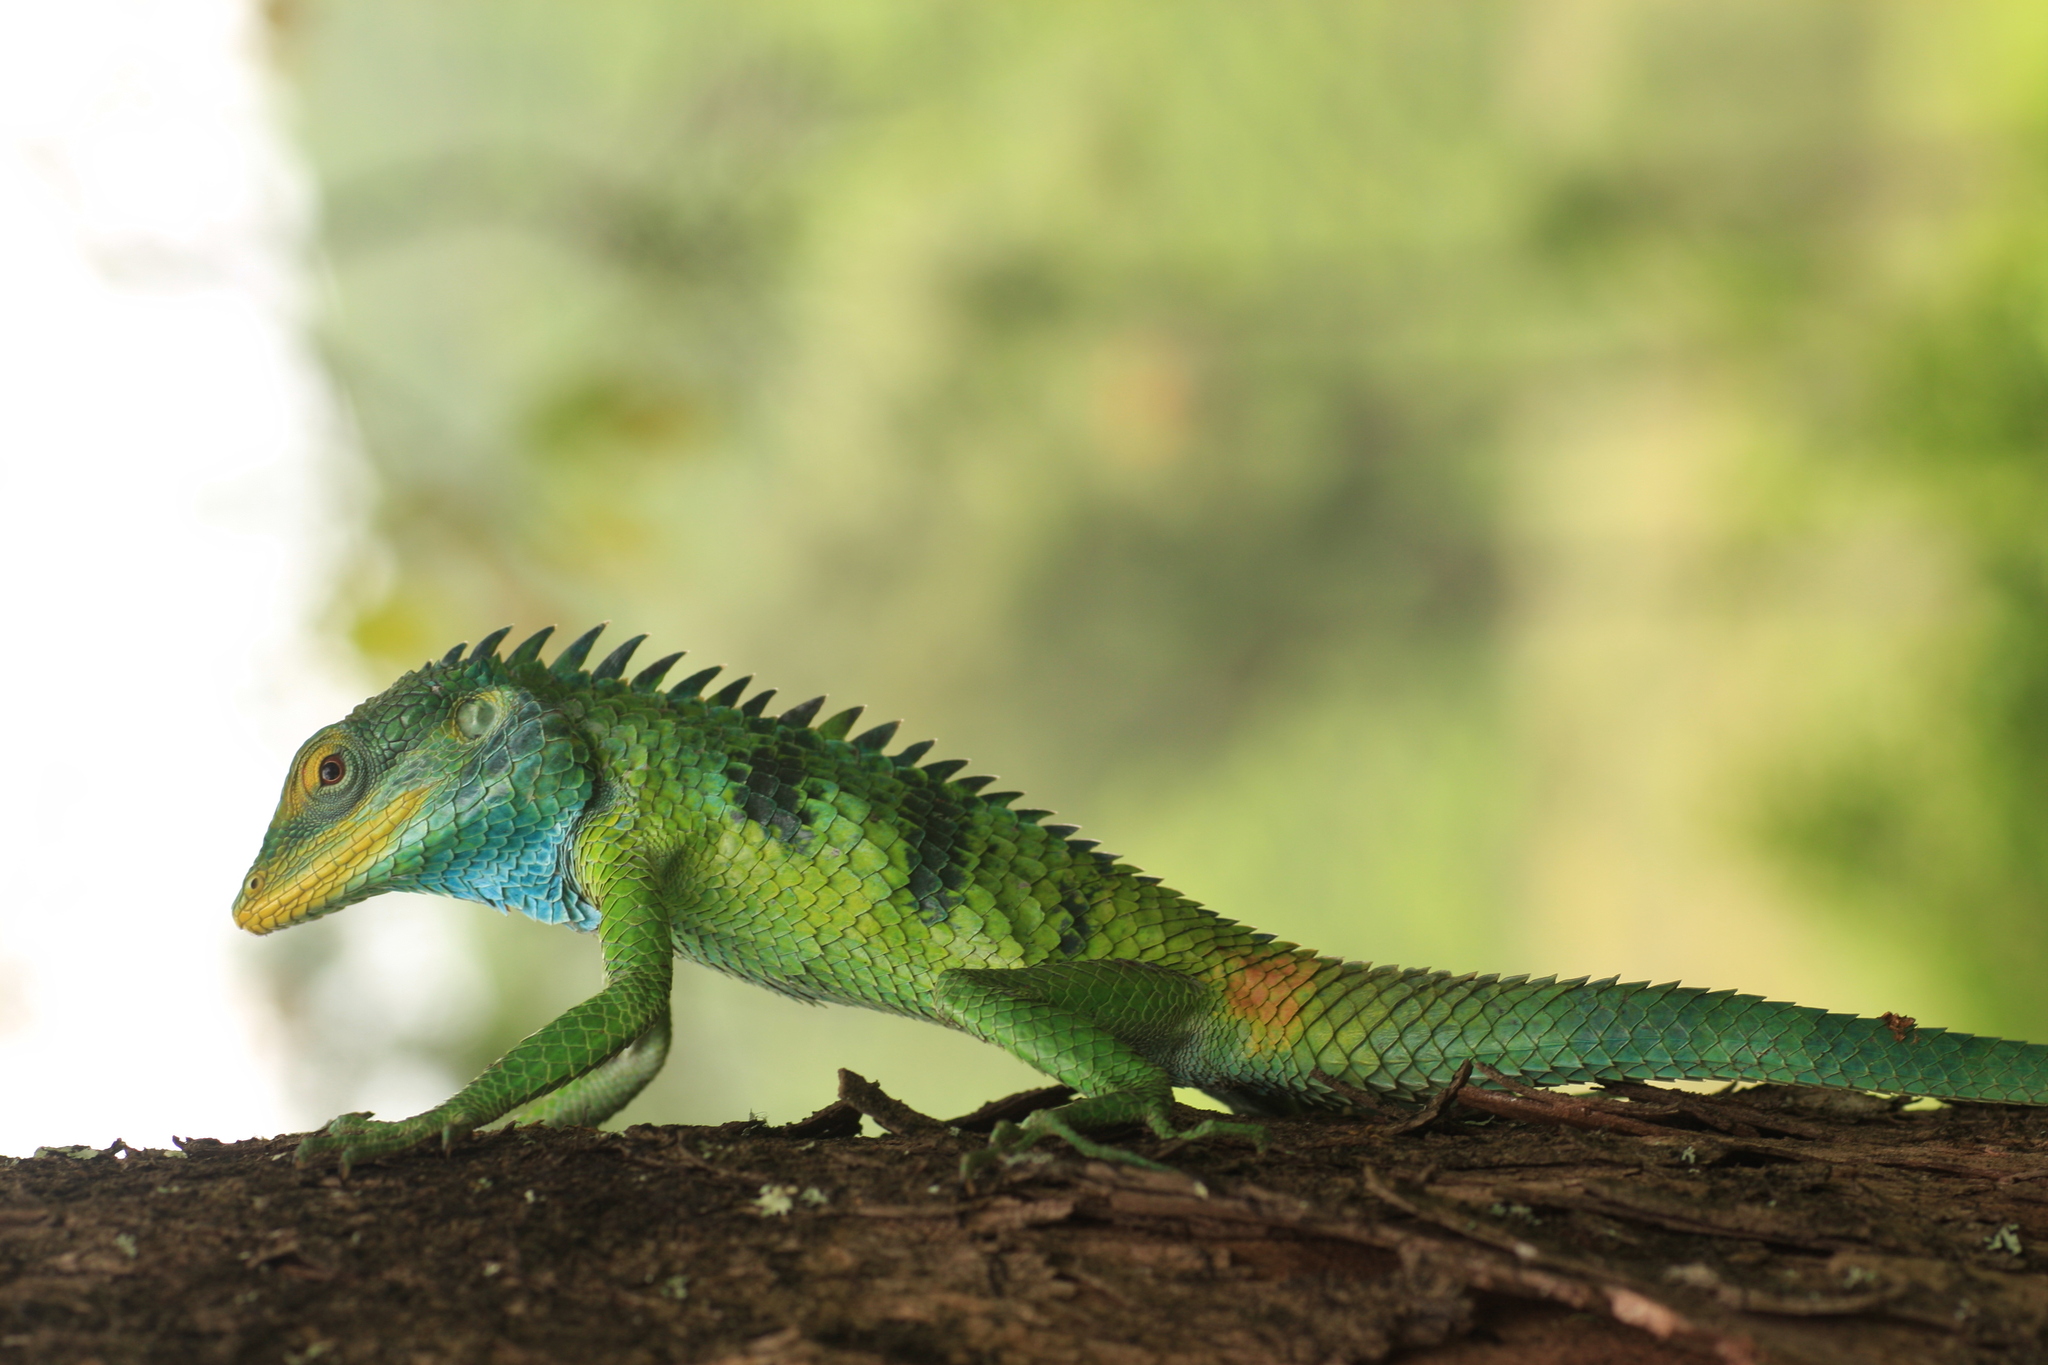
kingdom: Animalia
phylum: Chordata
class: Squamata
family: Agamidae
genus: Calotes
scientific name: Calotes grandisquamis
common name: Big scaled variable lizard
